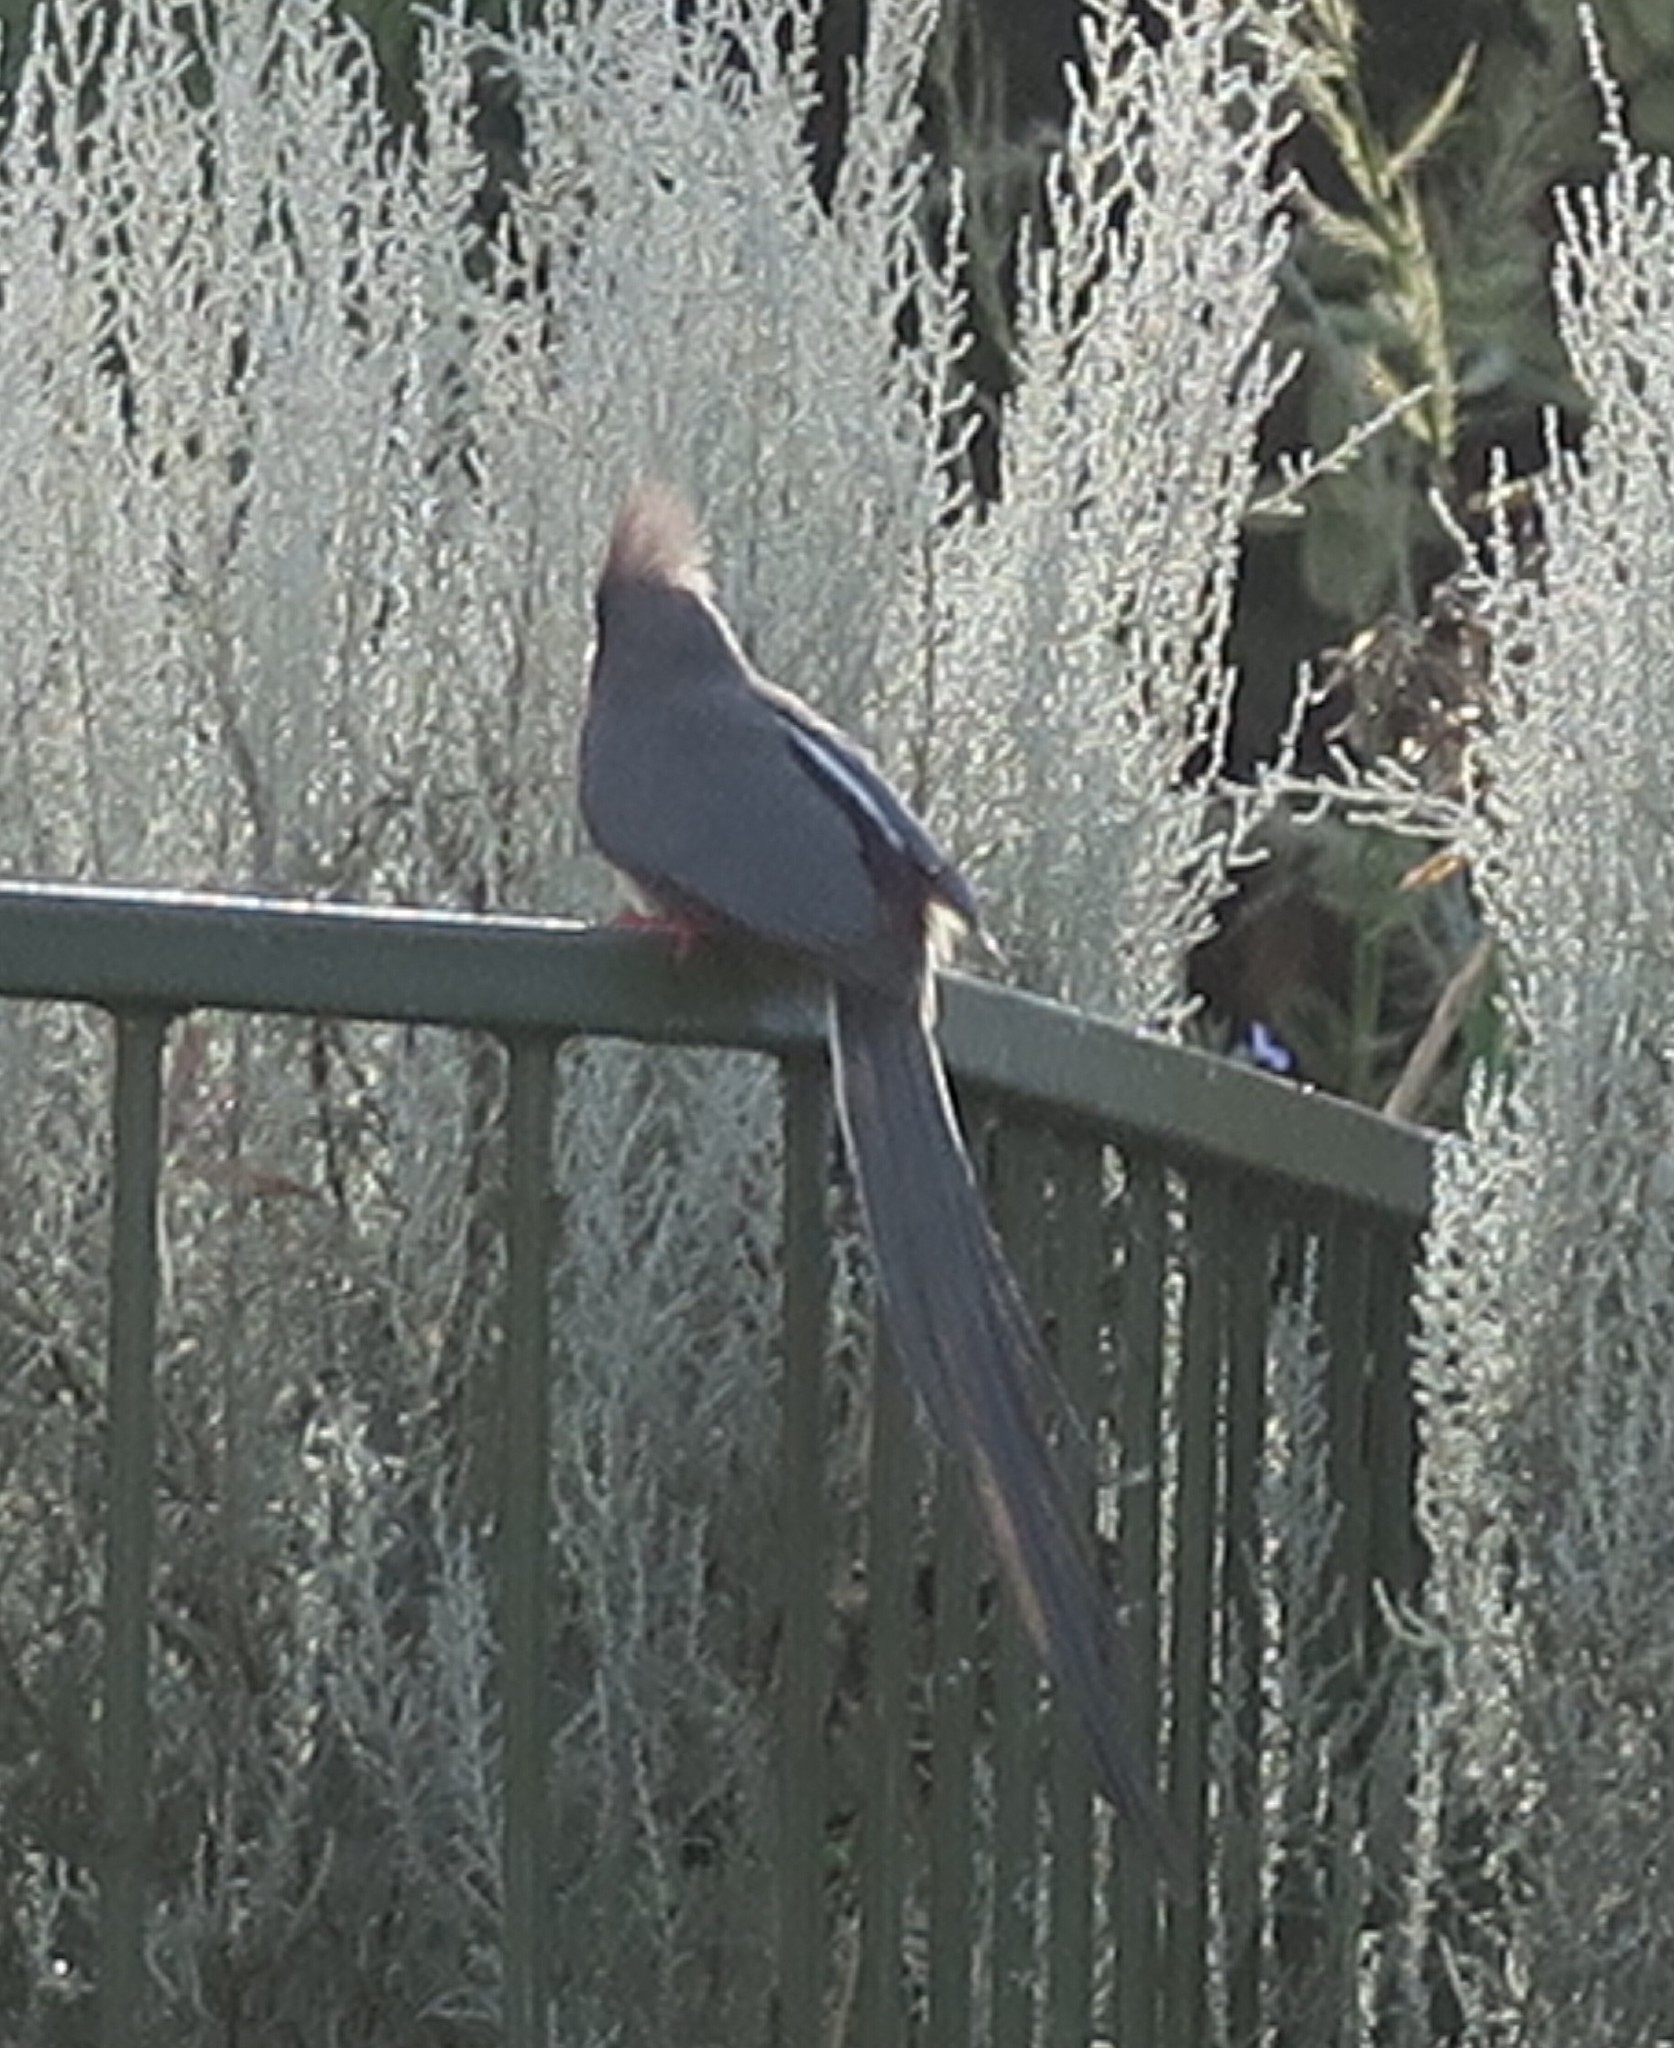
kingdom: Animalia
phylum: Chordata
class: Aves
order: Coliiformes
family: Coliidae
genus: Colius
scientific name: Colius colius
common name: White-backed mousebird
